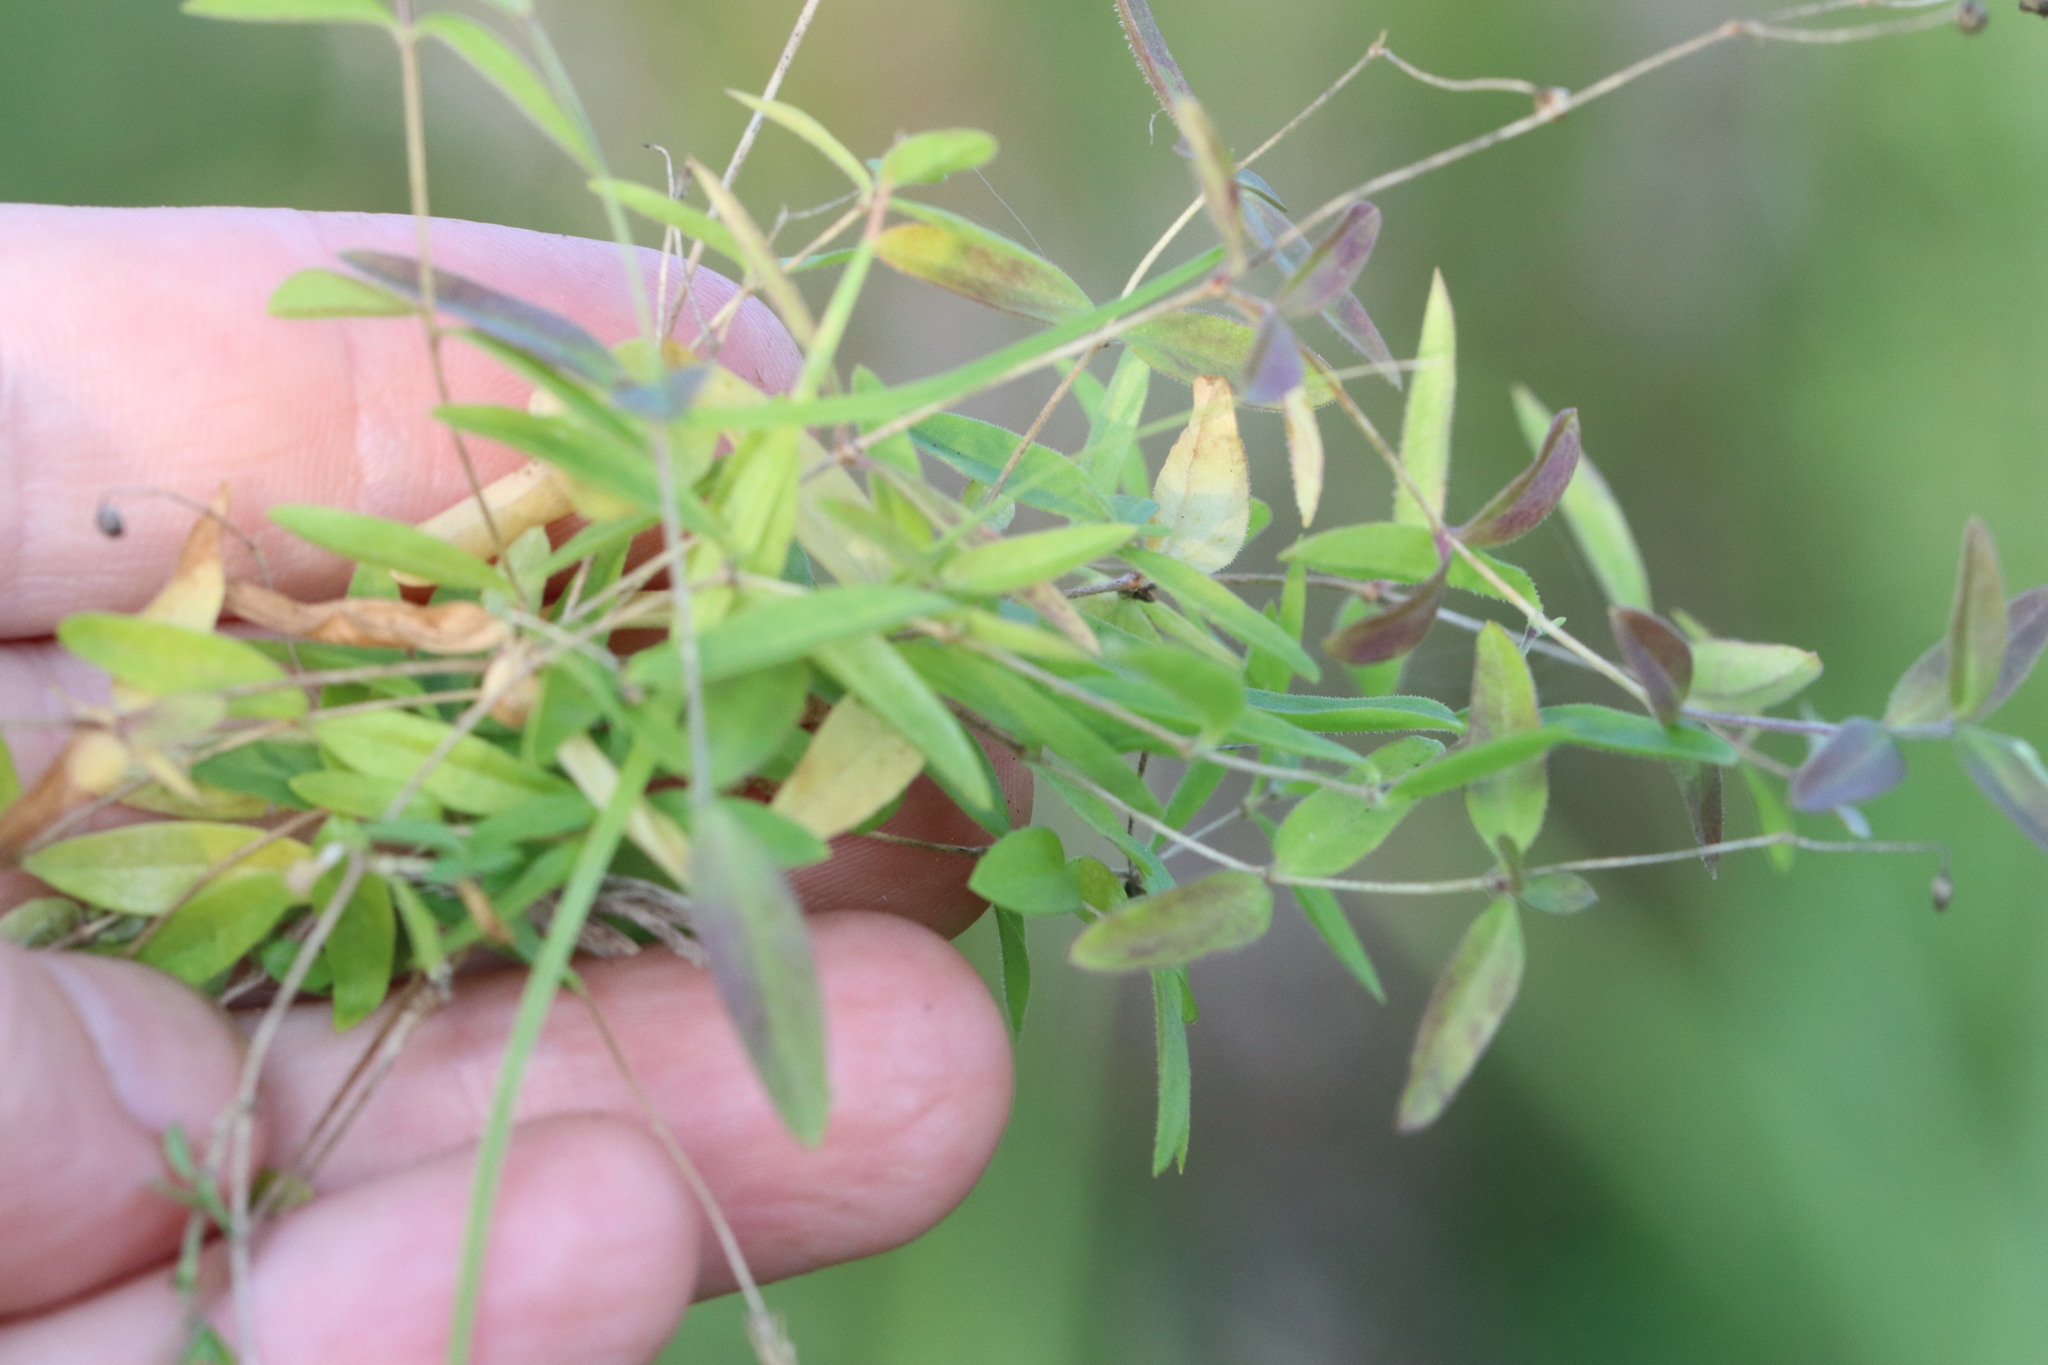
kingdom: Plantae
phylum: Tracheophyta
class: Magnoliopsida
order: Caryophyllales
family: Caryophyllaceae
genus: Moehringia
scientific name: Moehringia lateriflora
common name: Blunt-leaved sandwort
